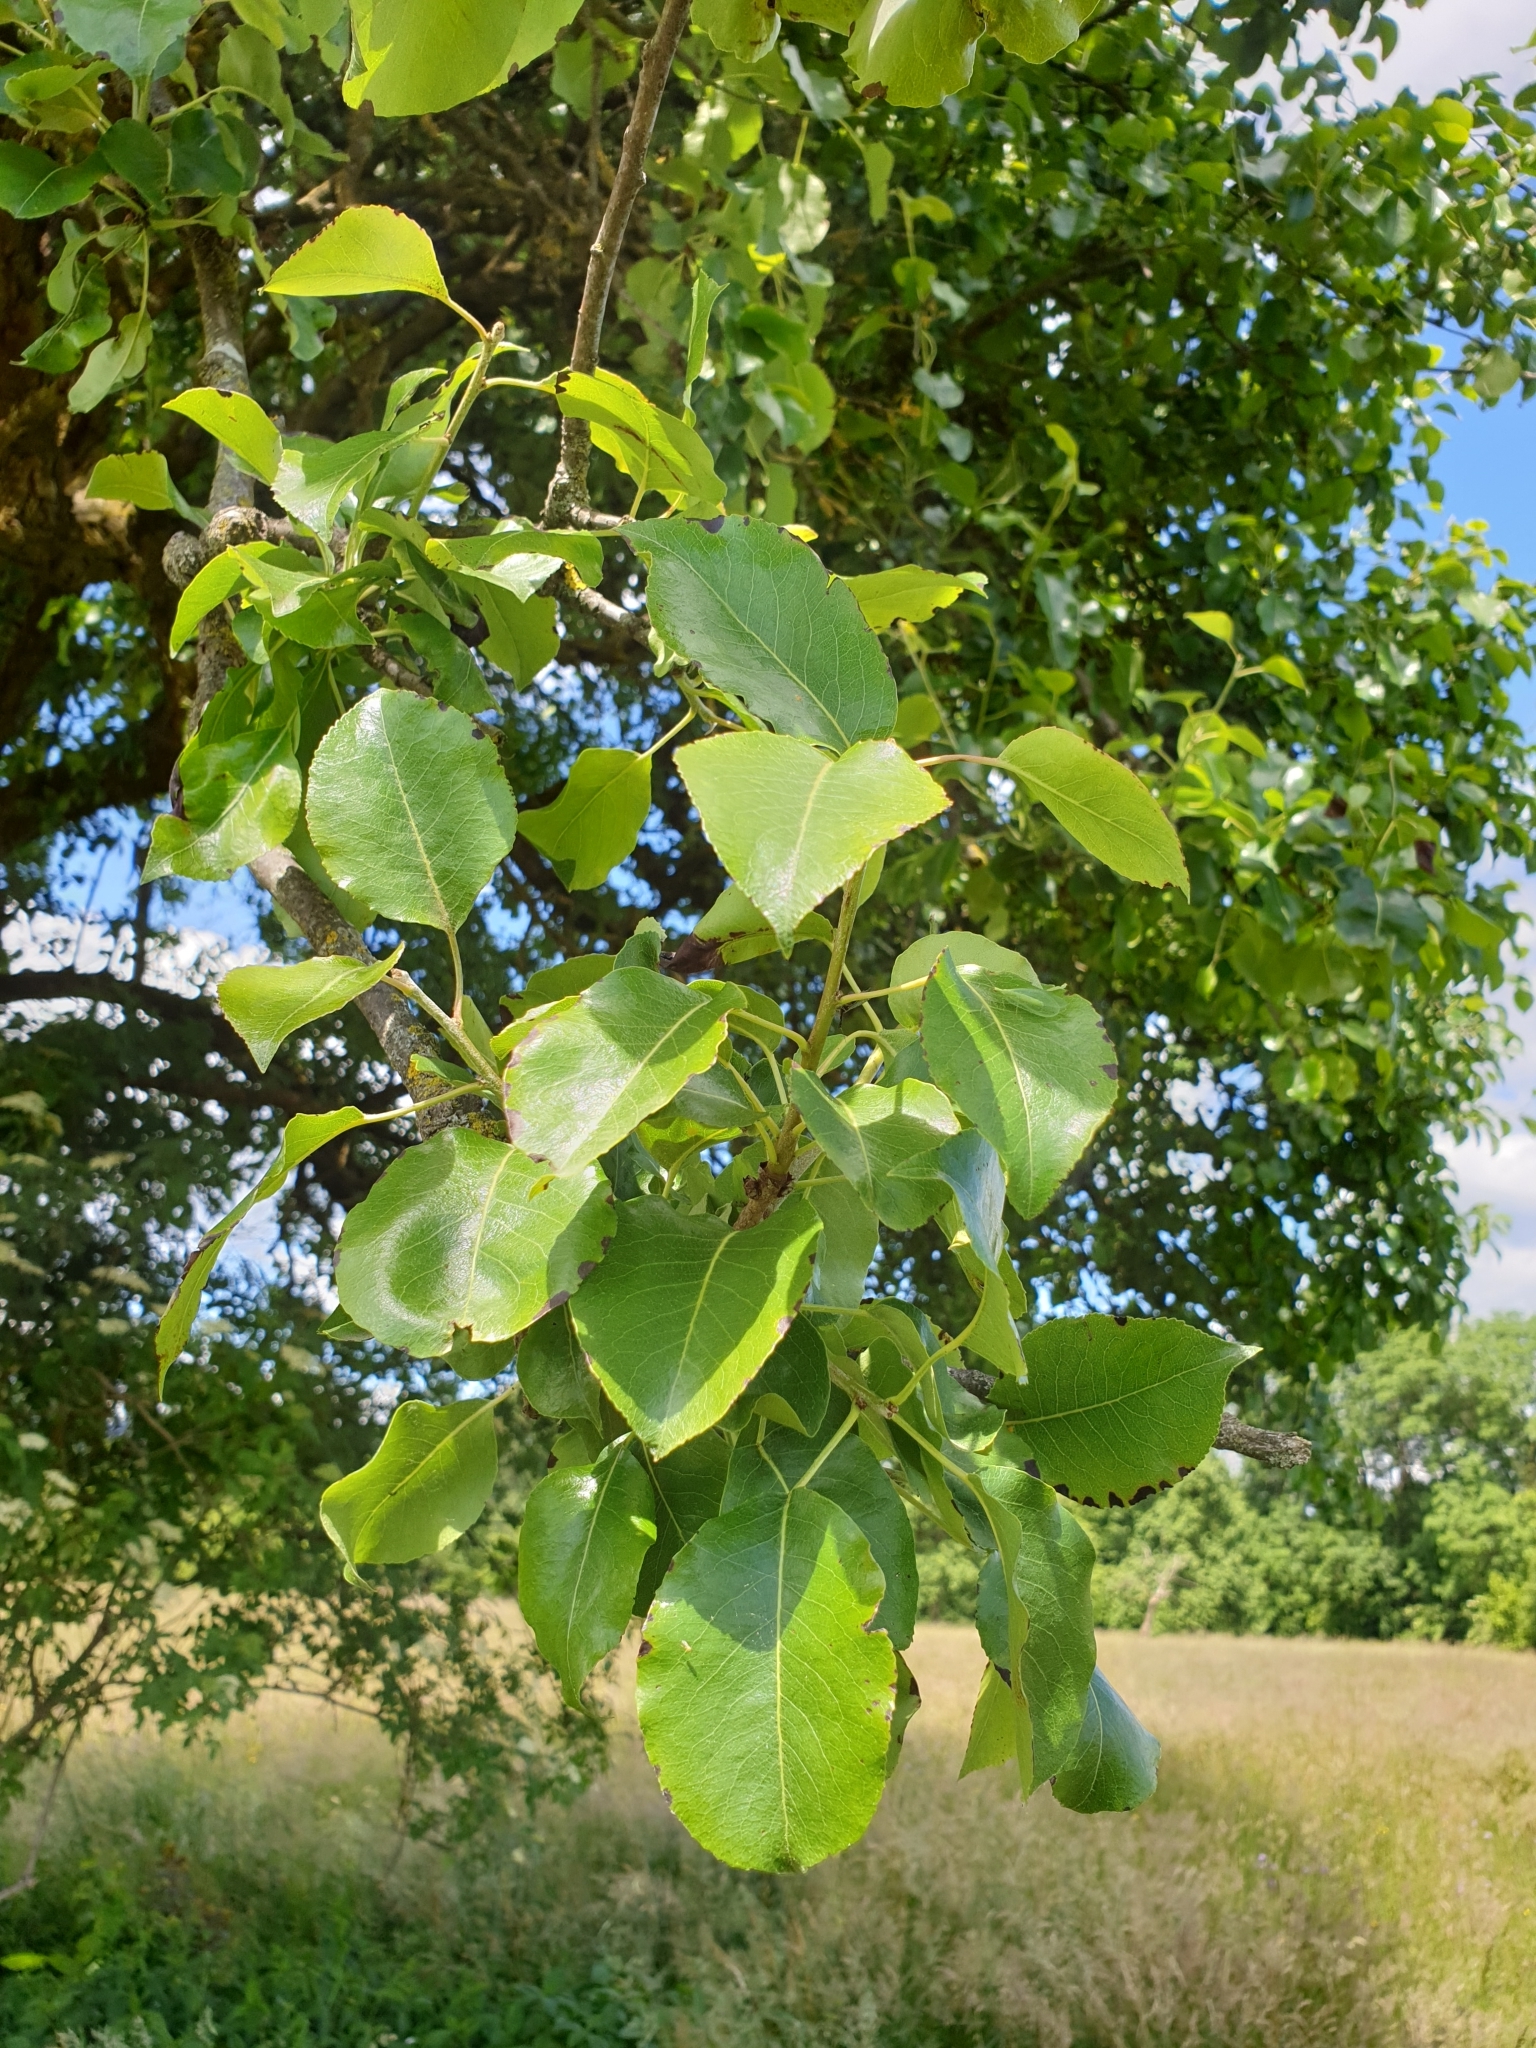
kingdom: Plantae
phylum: Tracheophyta
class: Magnoliopsida
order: Rosales
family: Rosaceae
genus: Pyrus
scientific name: Pyrus communis
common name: Pear
